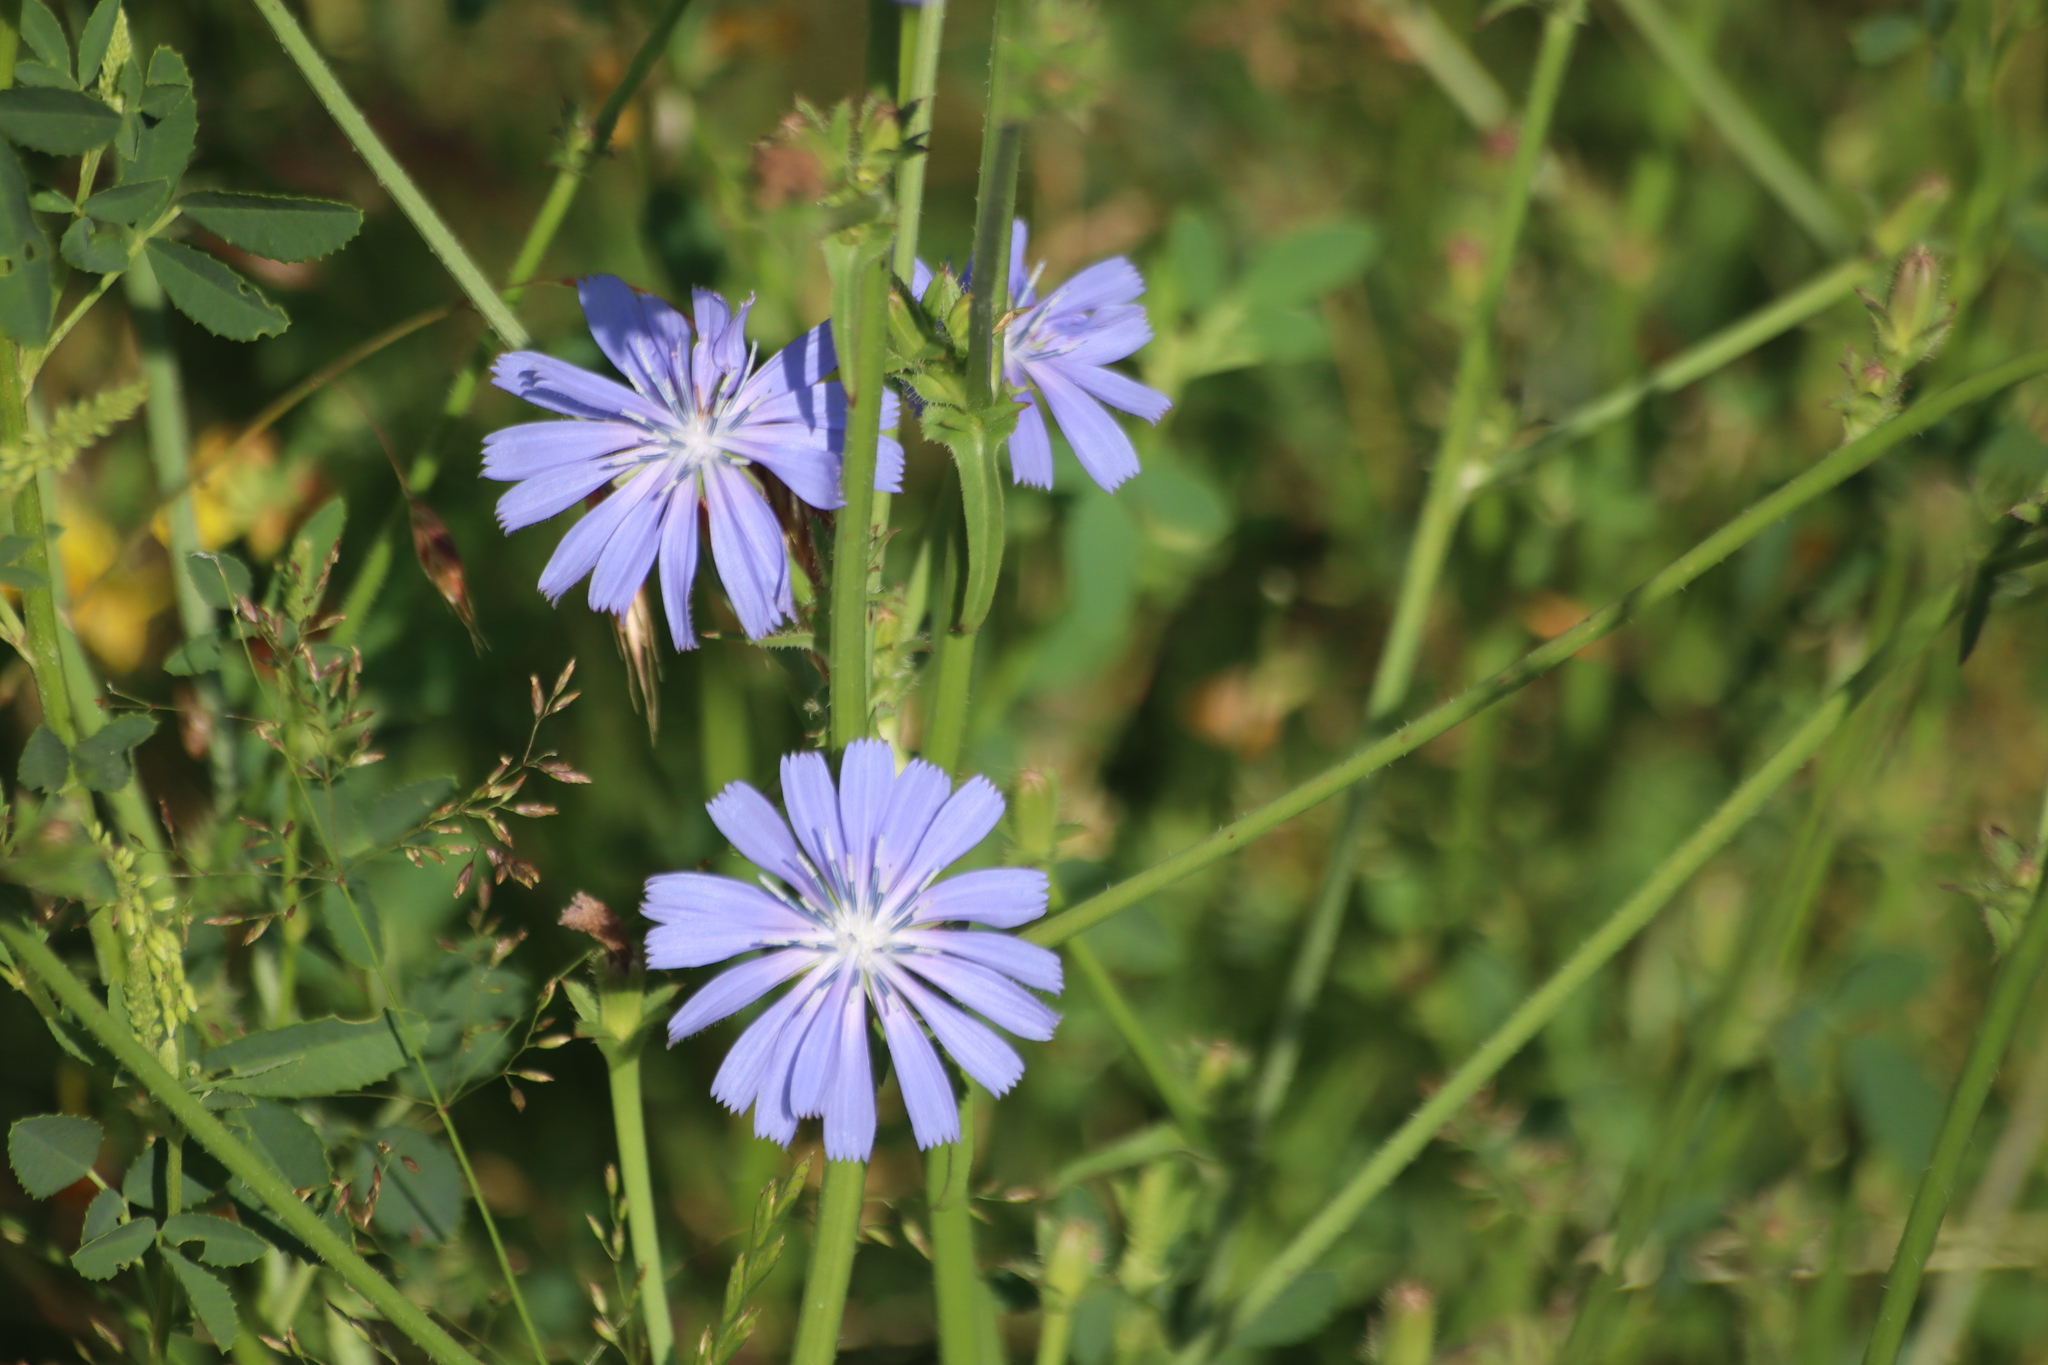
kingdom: Plantae
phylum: Tracheophyta
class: Magnoliopsida
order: Asterales
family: Asteraceae
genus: Cichorium
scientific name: Cichorium intybus
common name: Chicory
